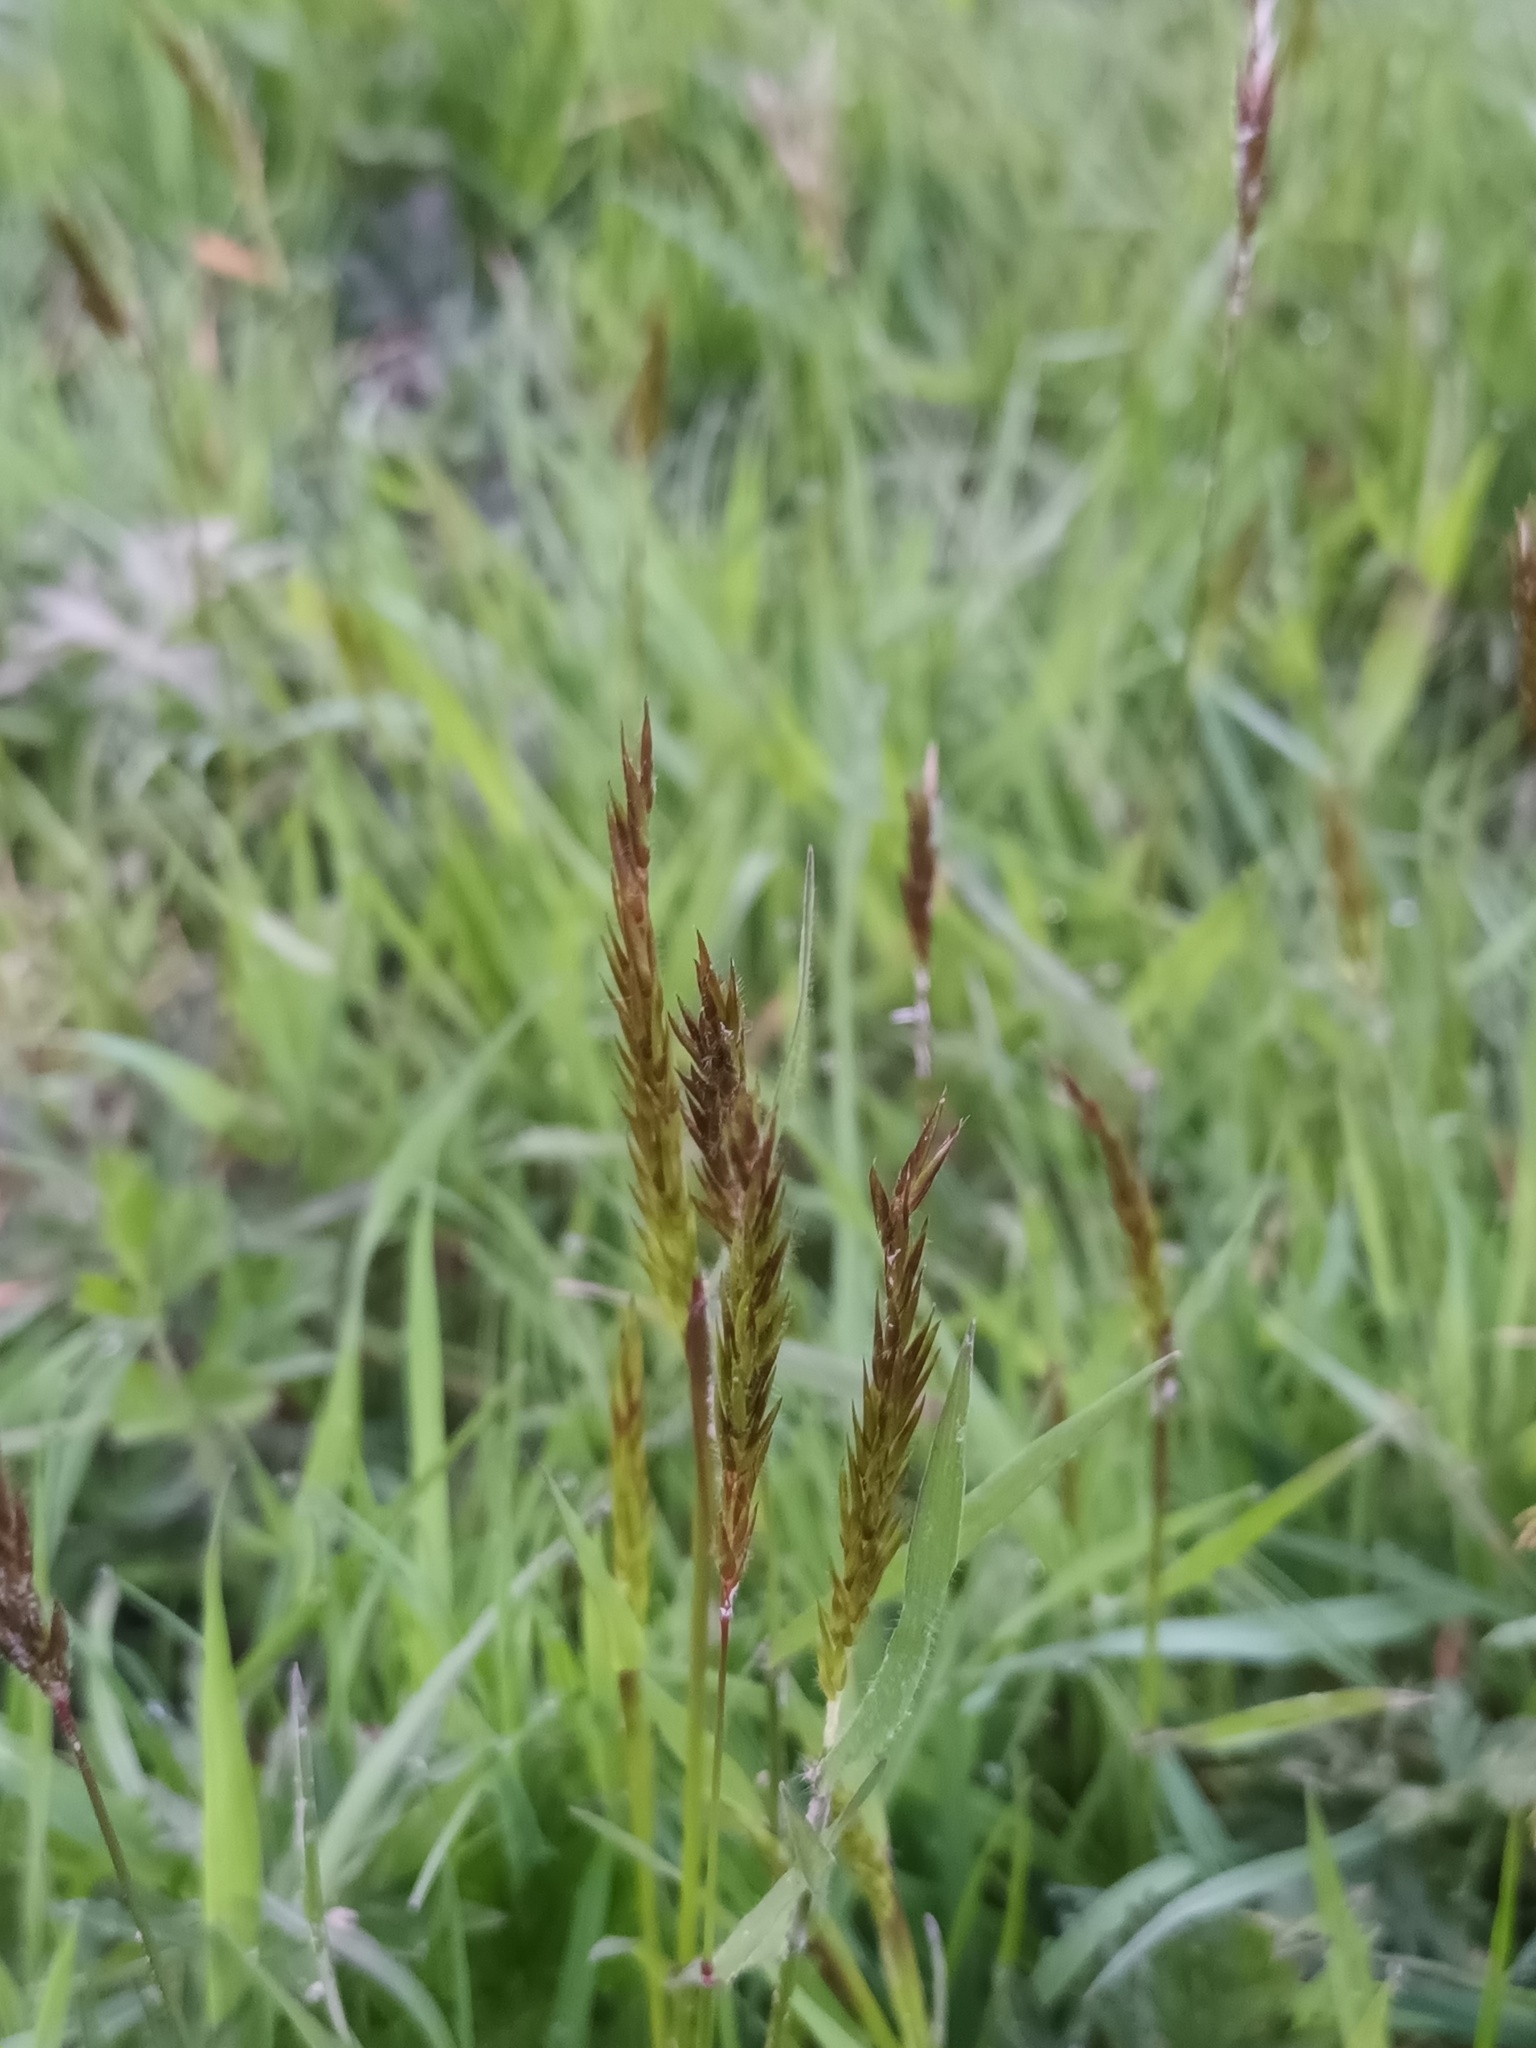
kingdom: Plantae
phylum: Tracheophyta
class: Liliopsida
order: Poales
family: Poaceae
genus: Anthoxanthum
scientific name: Anthoxanthum odoratum
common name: Sweet vernalgrass
